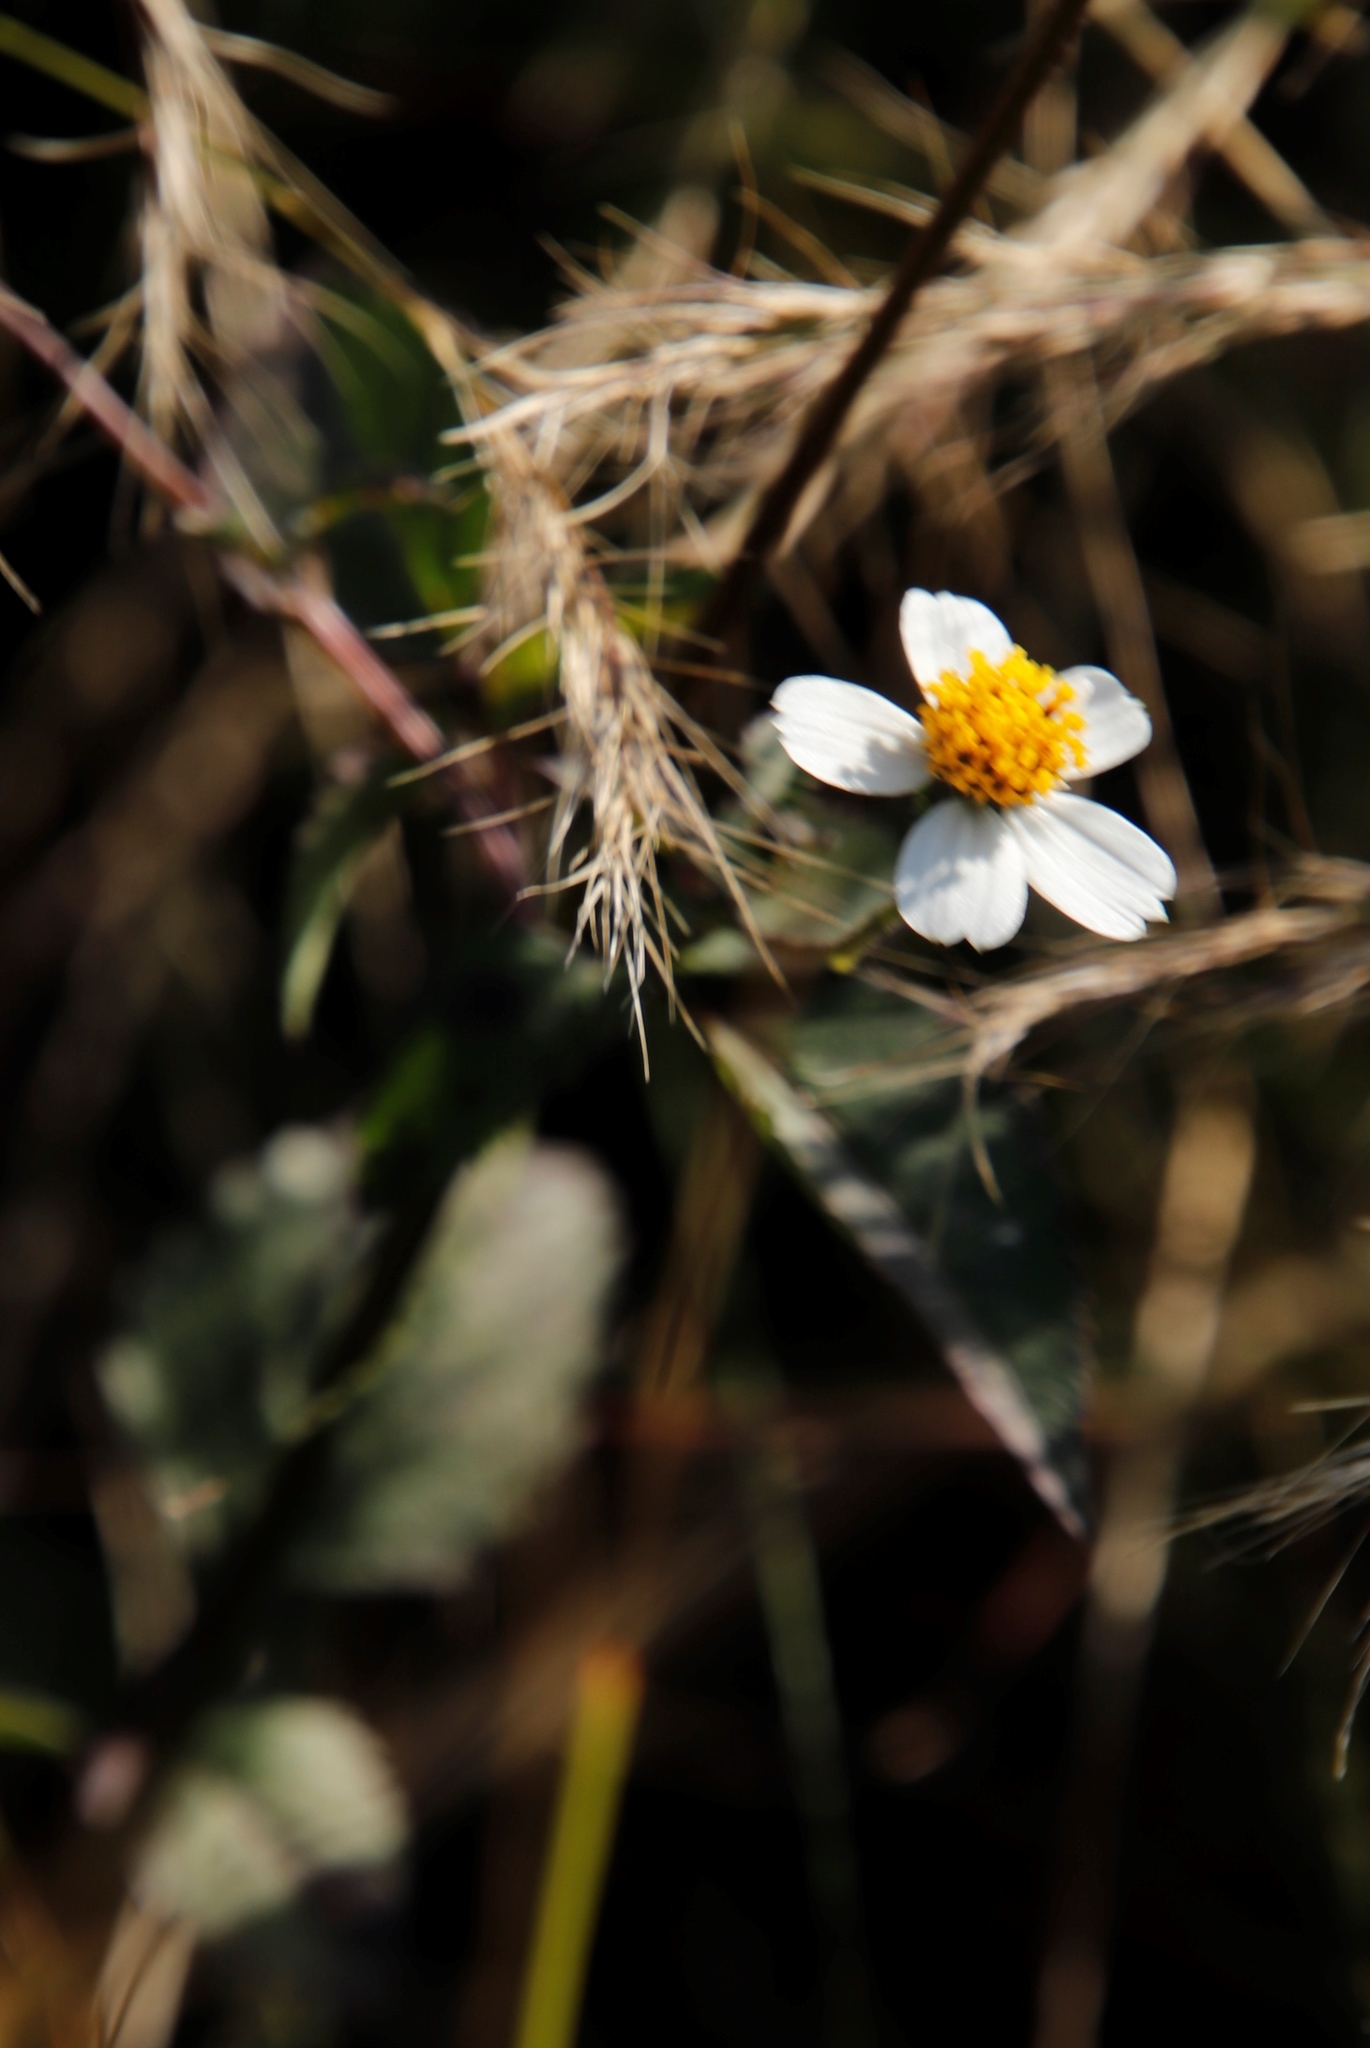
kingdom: Plantae
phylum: Tracheophyta
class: Magnoliopsida
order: Asterales
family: Asteraceae
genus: Bidens
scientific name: Bidens pilosa
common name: Black-jack
